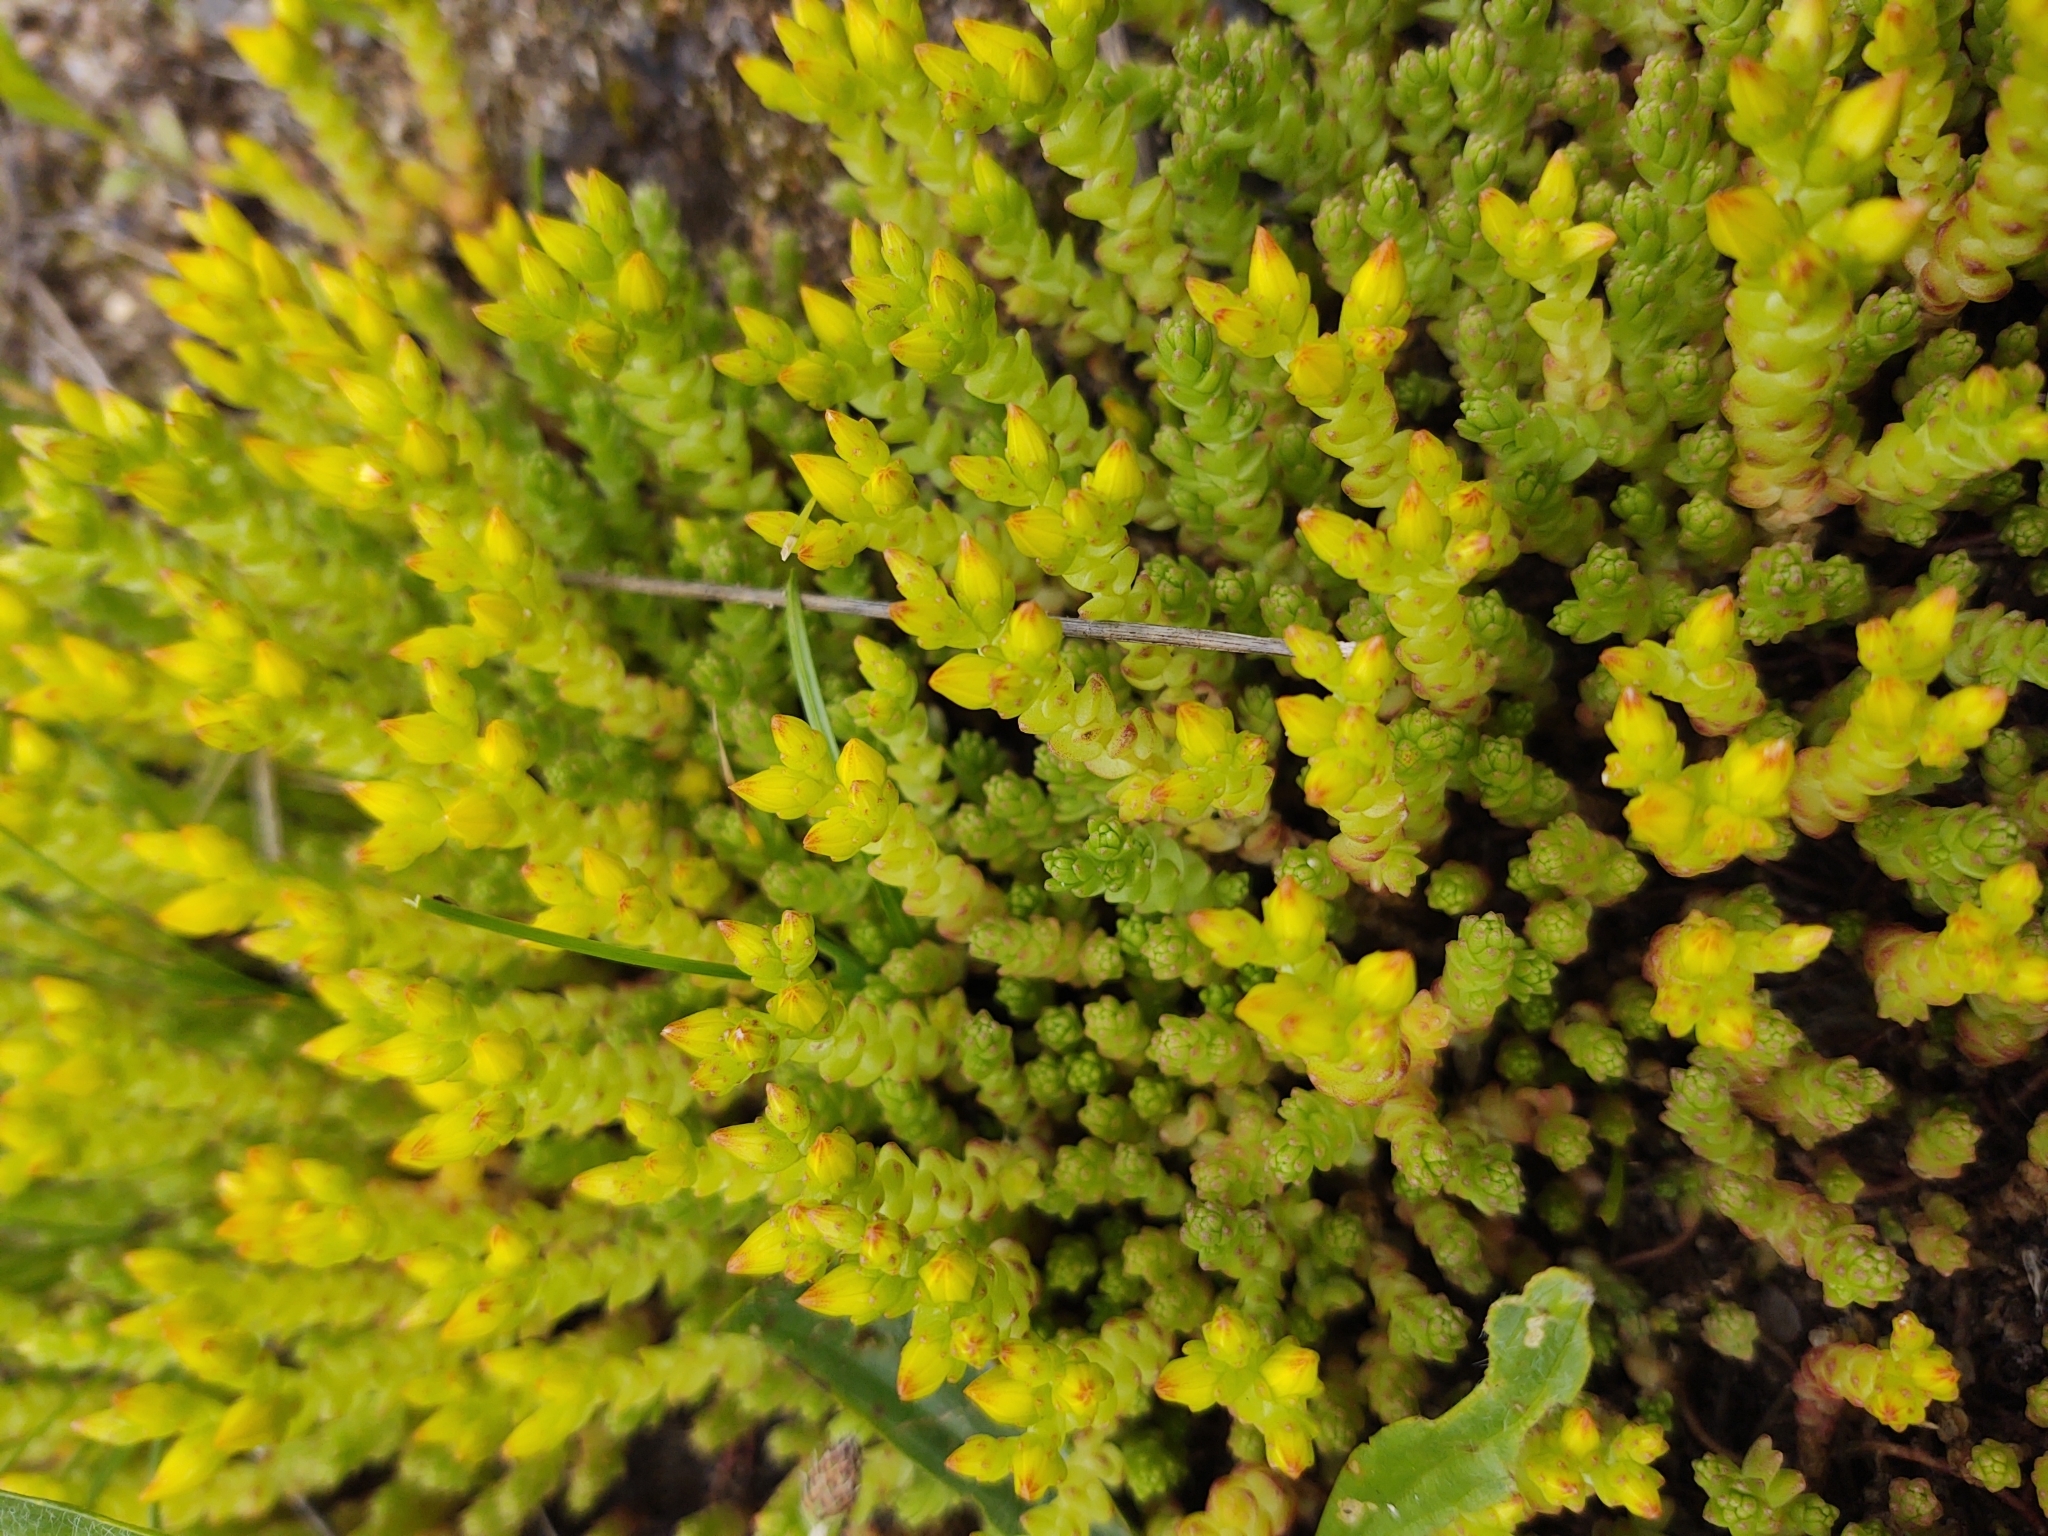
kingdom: Plantae
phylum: Tracheophyta
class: Magnoliopsida
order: Saxifragales
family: Crassulaceae
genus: Sedum
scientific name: Sedum acre
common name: Biting stonecrop
